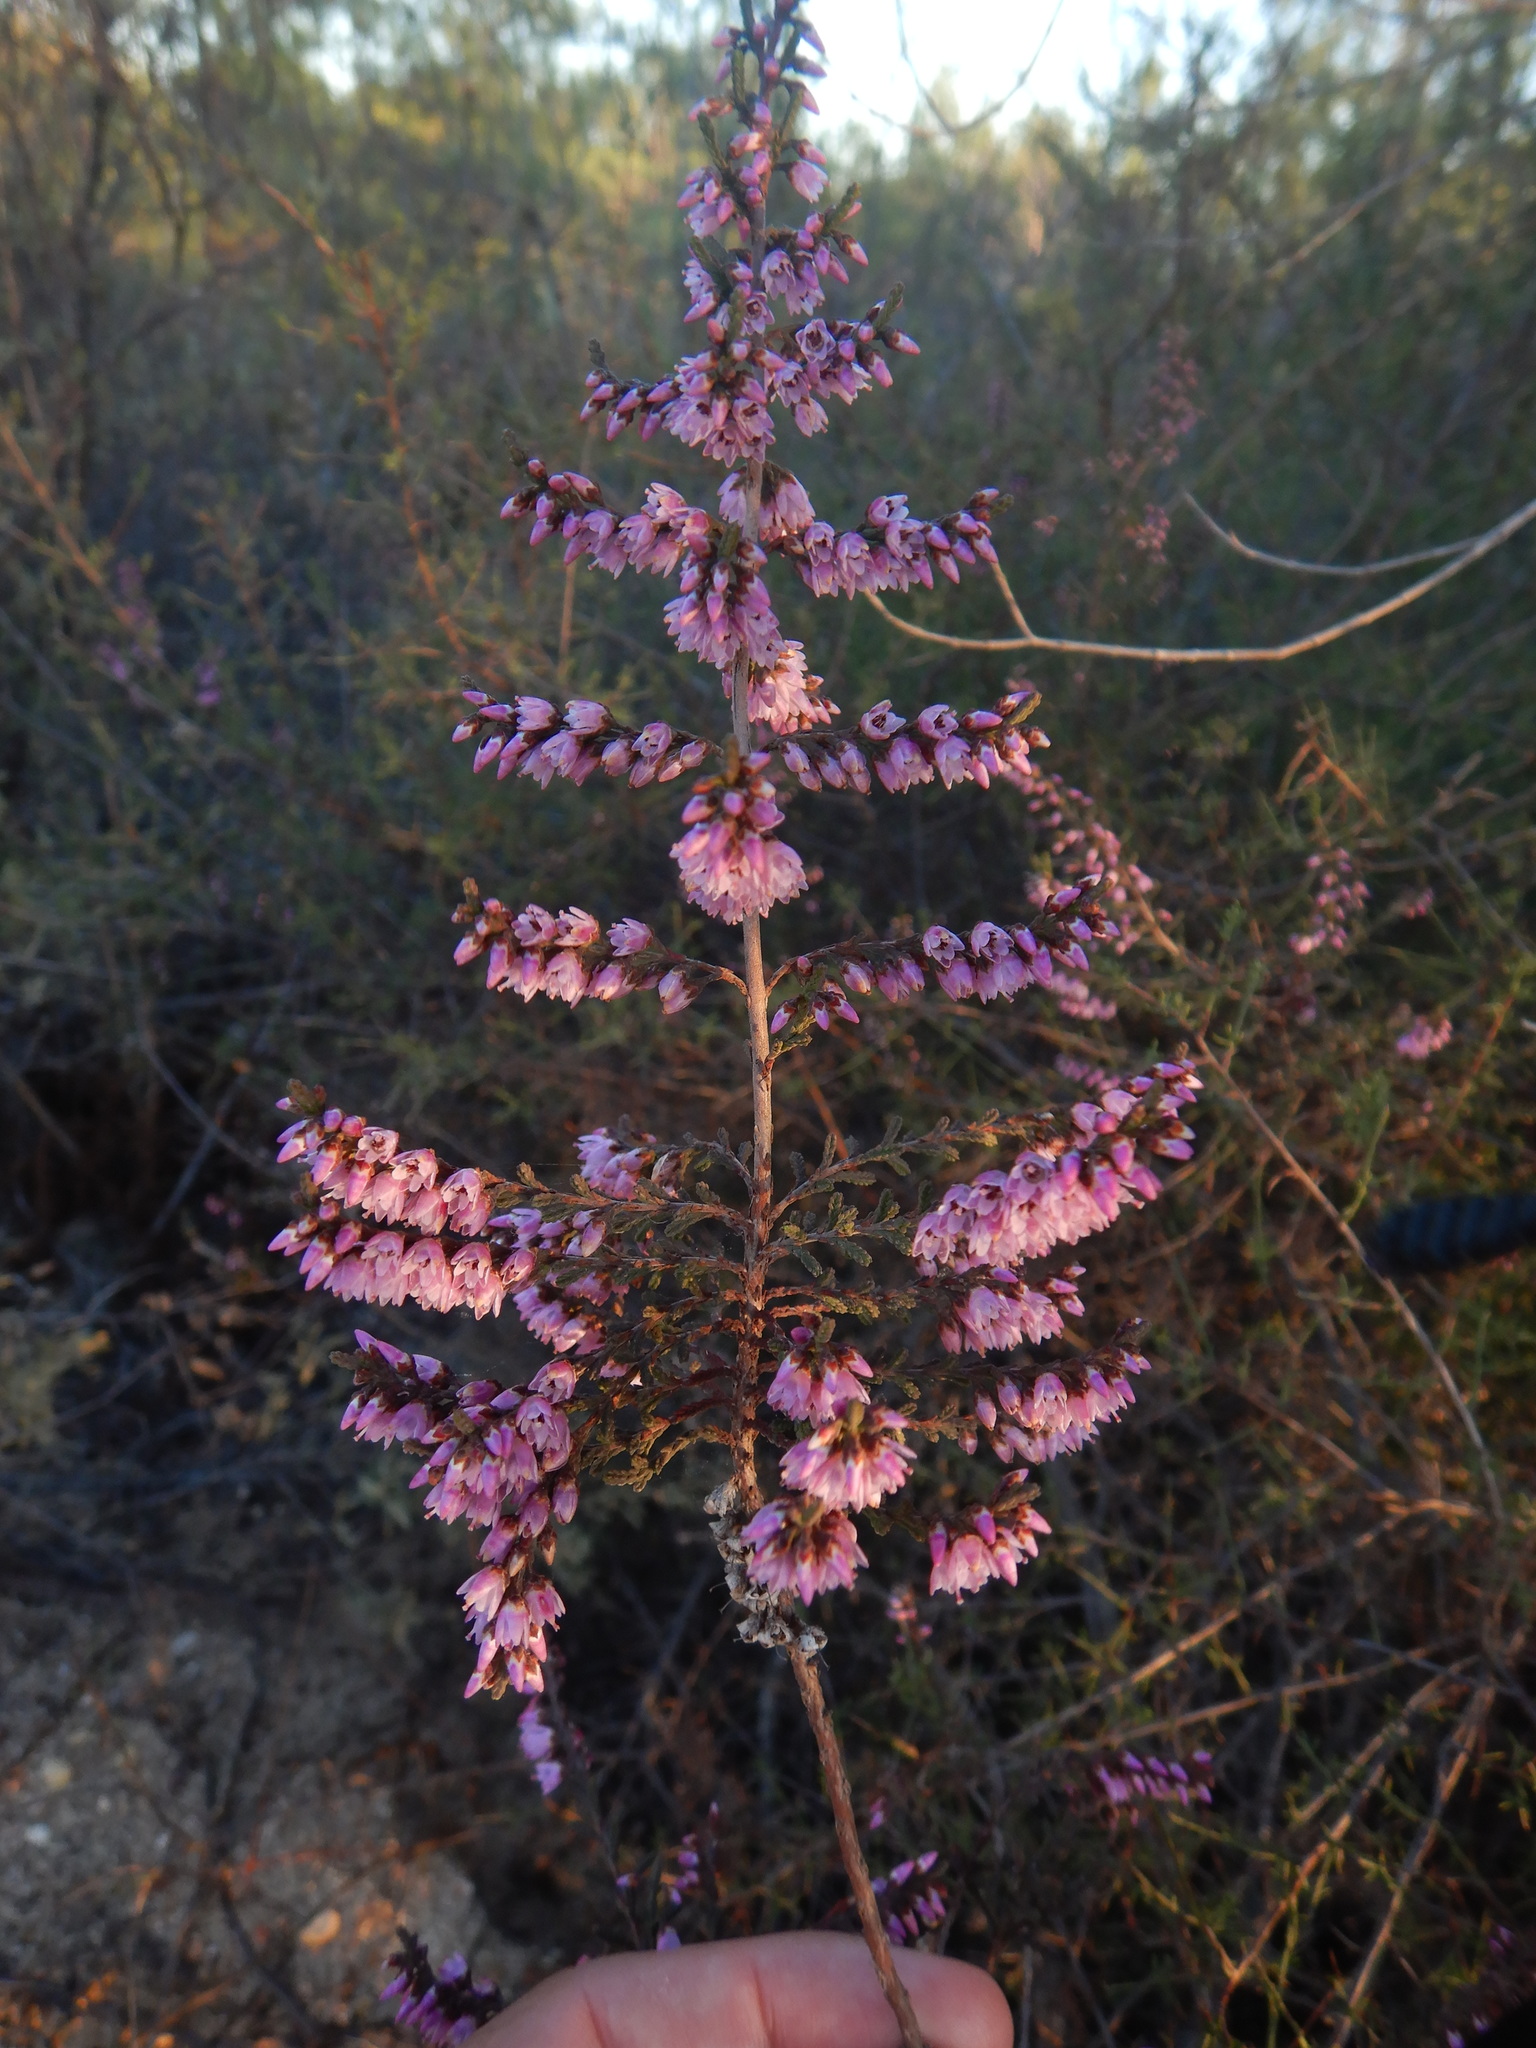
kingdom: Plantae
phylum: Tracheophyta
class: Magnoliopsida
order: Ericales
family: Ericaceae
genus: Calluna
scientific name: Calluna vulgaris
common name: Heather
